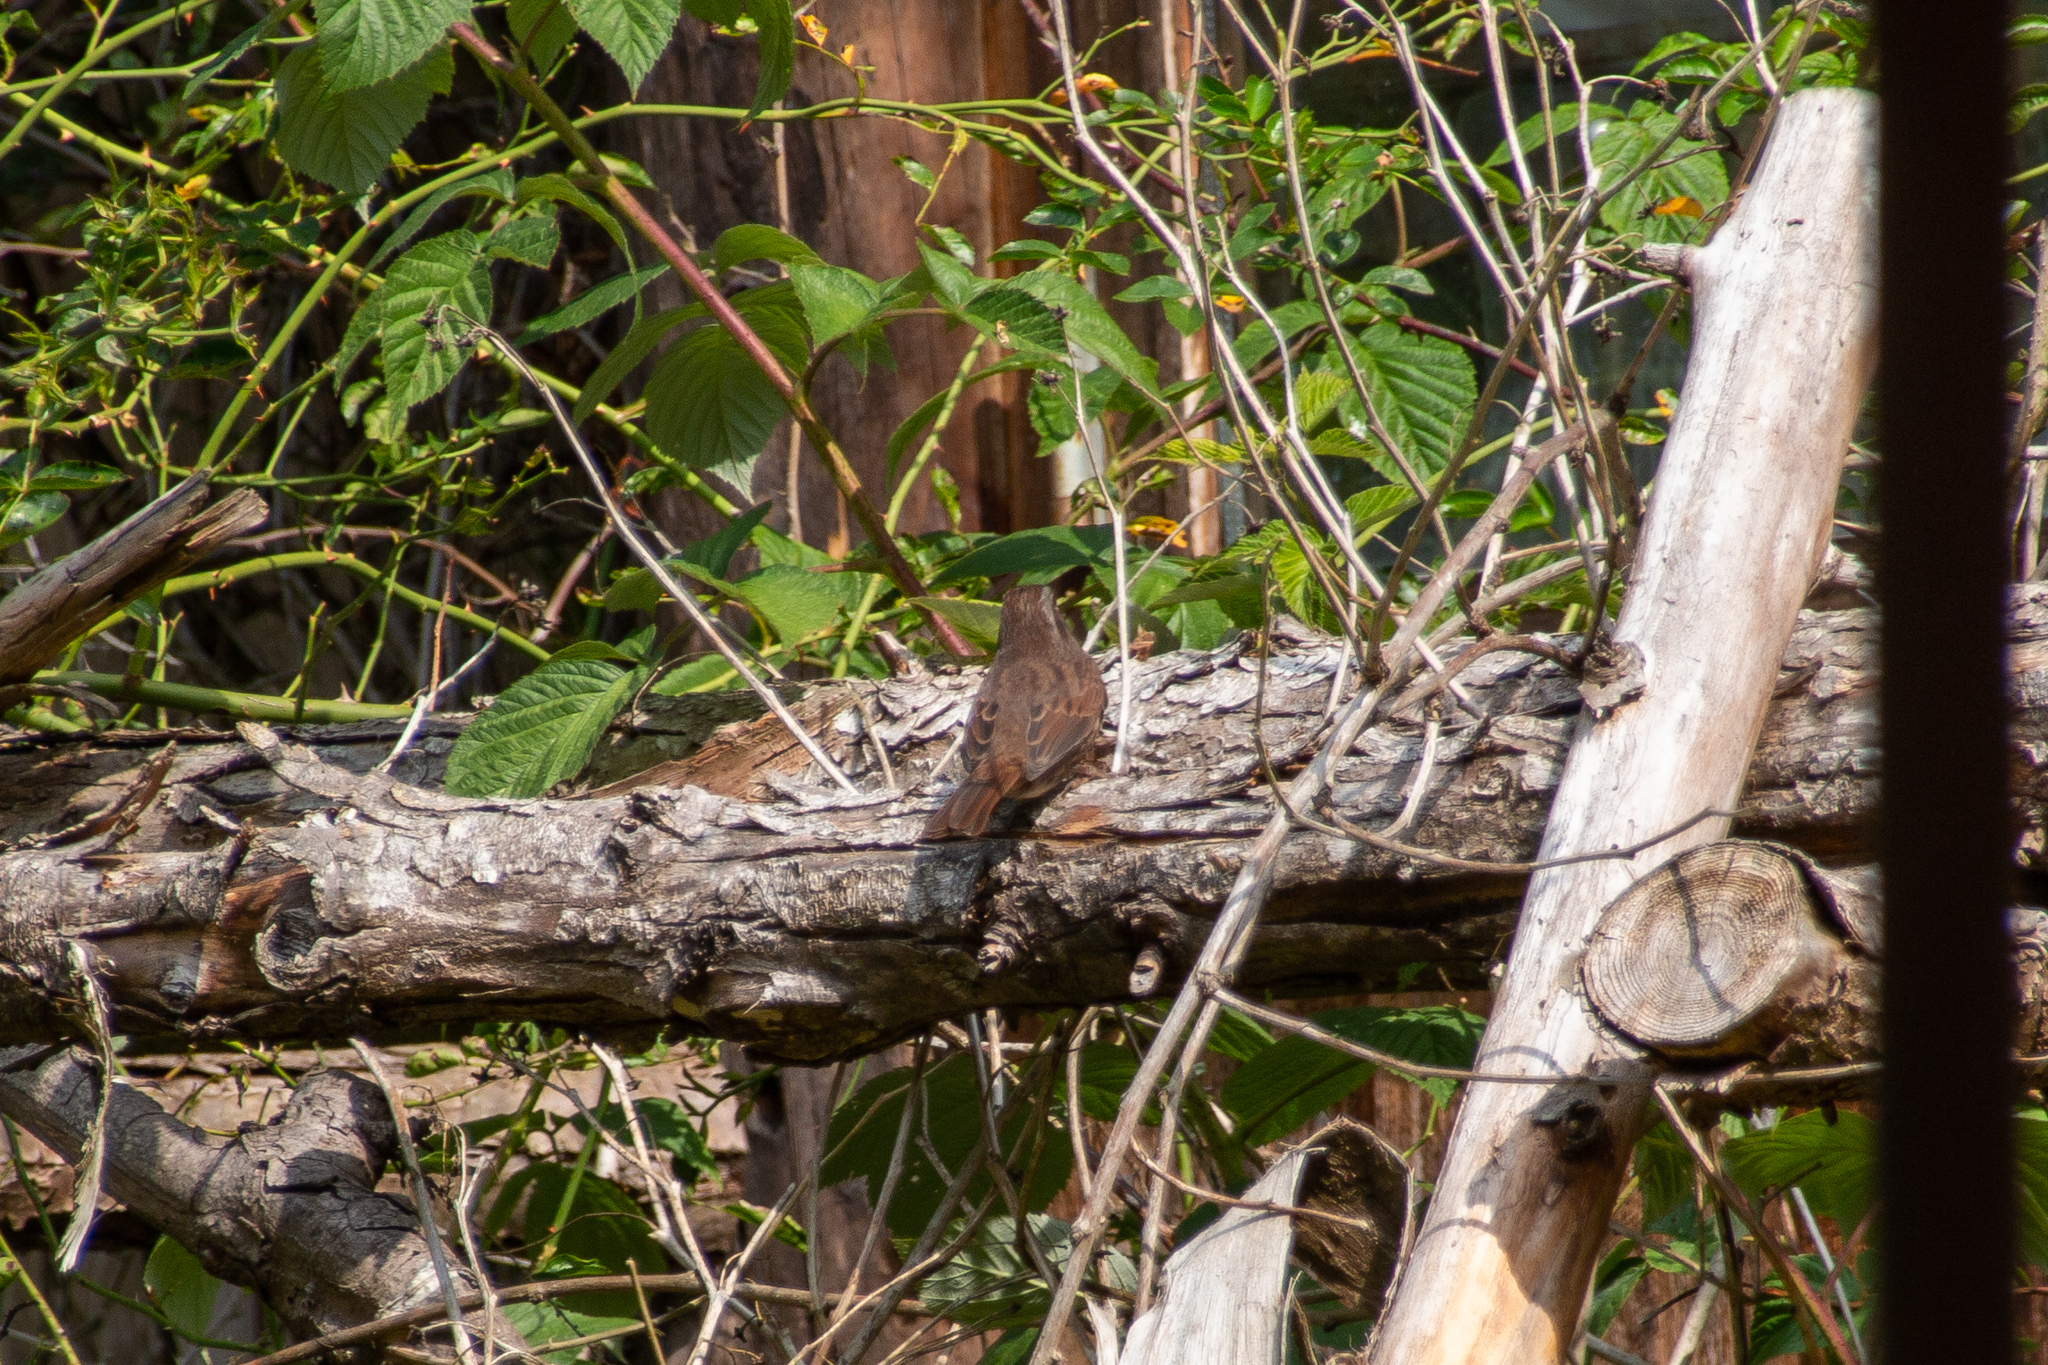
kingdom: Animalia
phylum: Chordata
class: Aves
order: Passeriformes
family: Passerellidae
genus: Melospiza
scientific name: Melospiza melodia
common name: Song sparrow
